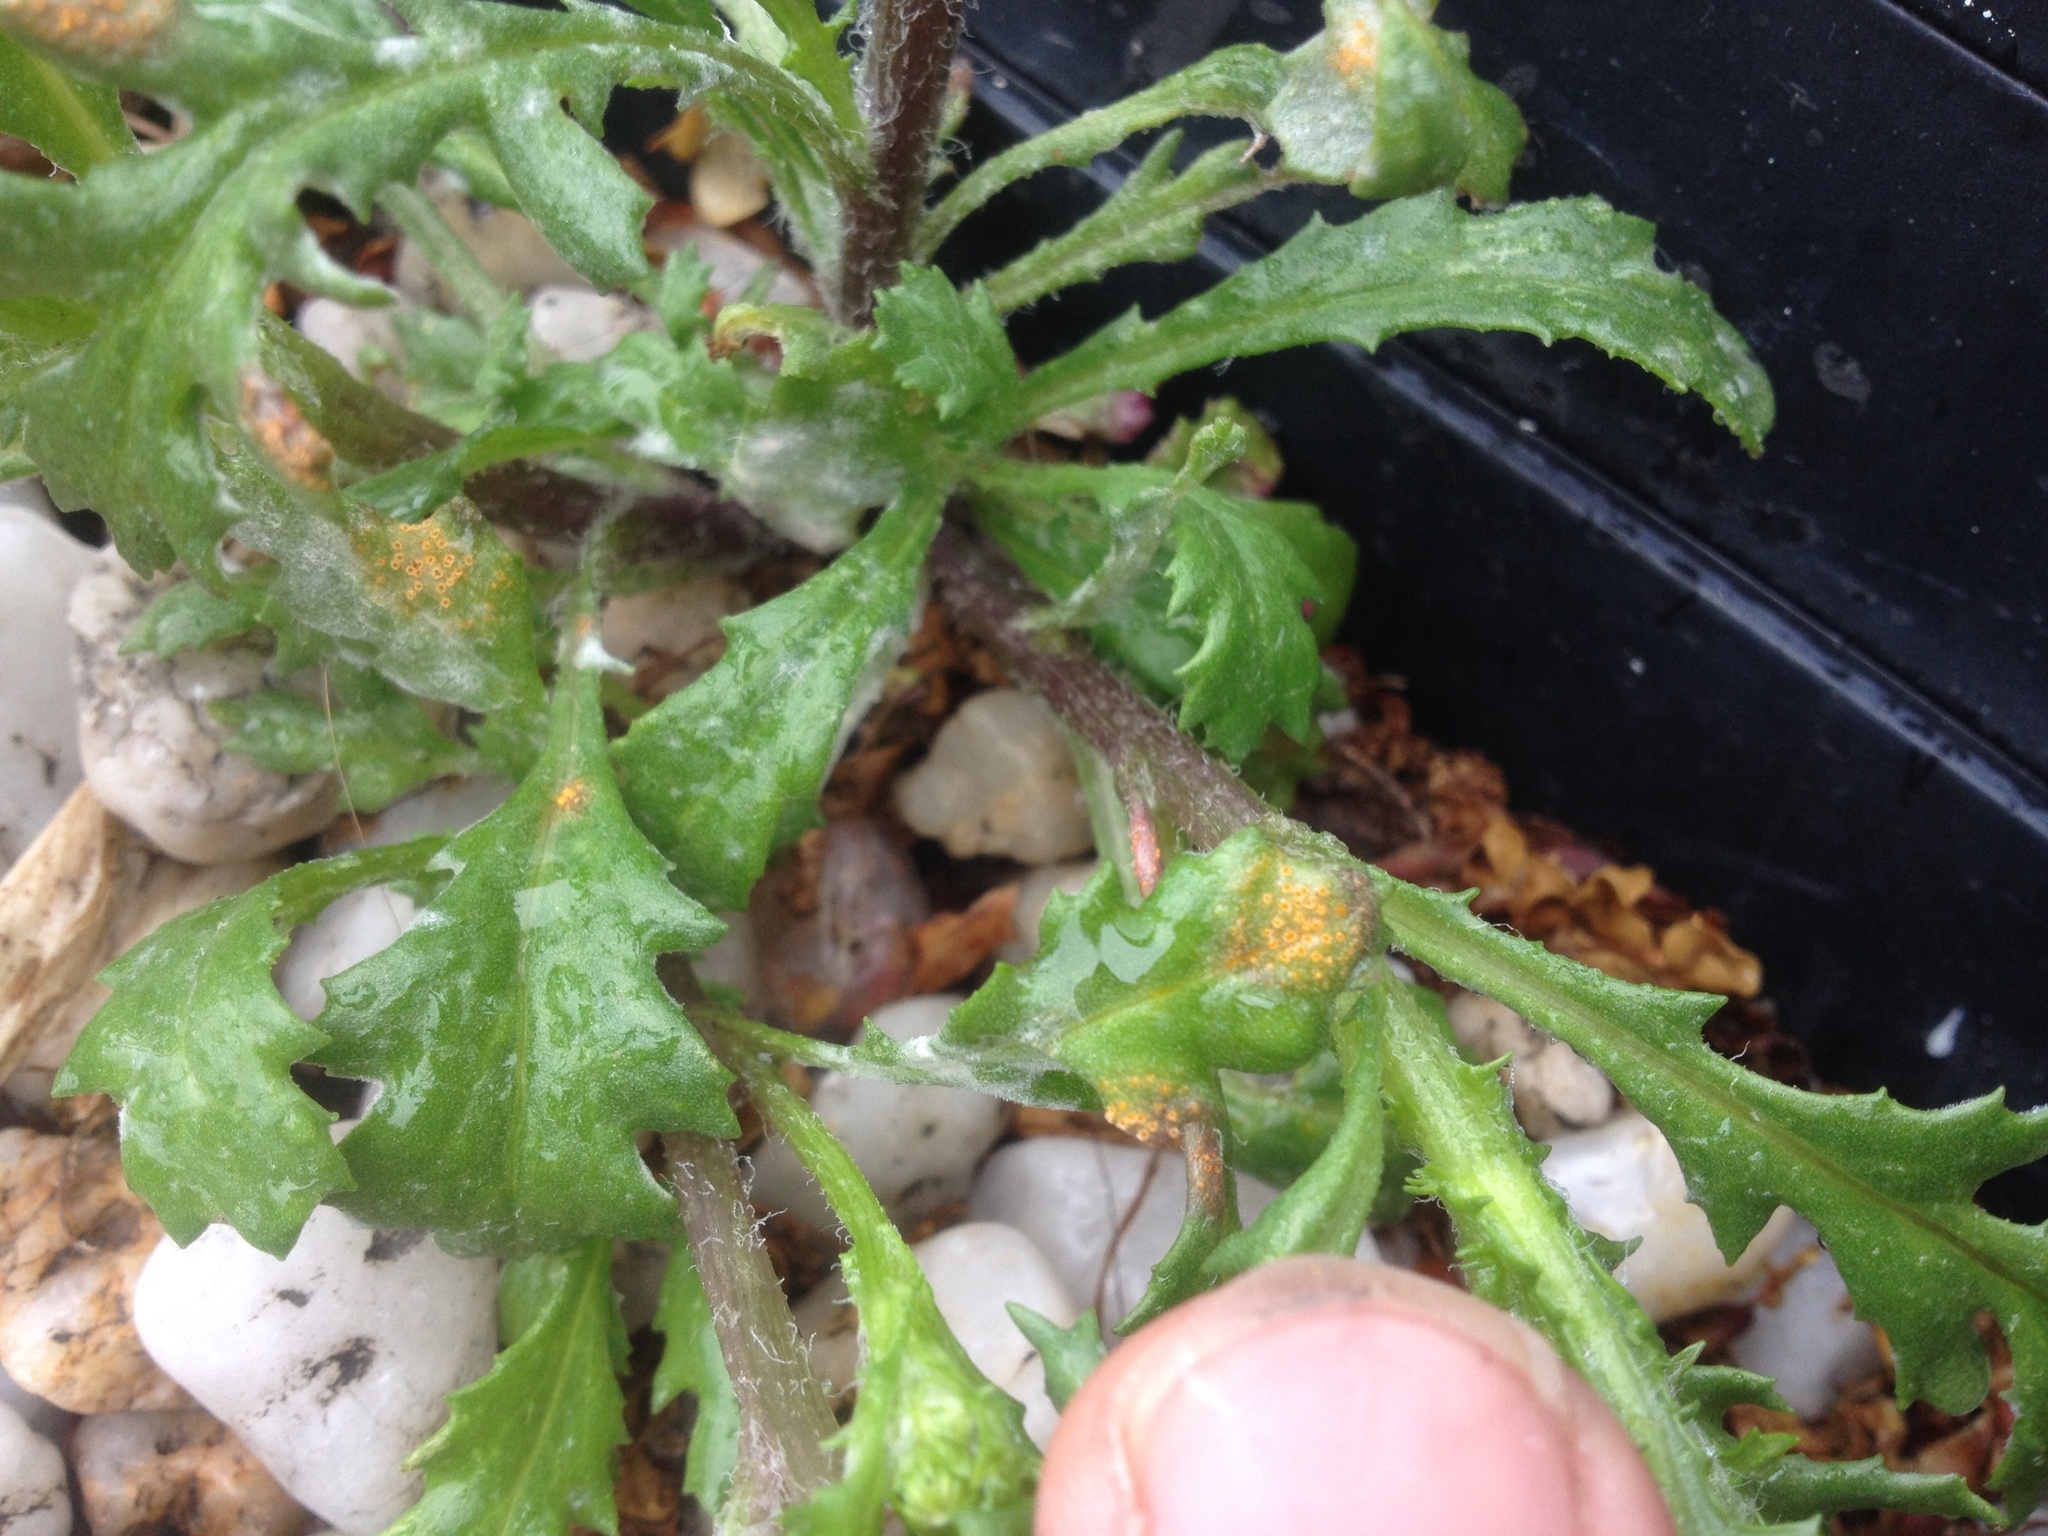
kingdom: Fungi
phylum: Basidiomycota
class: Pucciniomycetes
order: Pucciniales
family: Pucciniaceae
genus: Puccinia
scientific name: Puccinia lagenophorae
